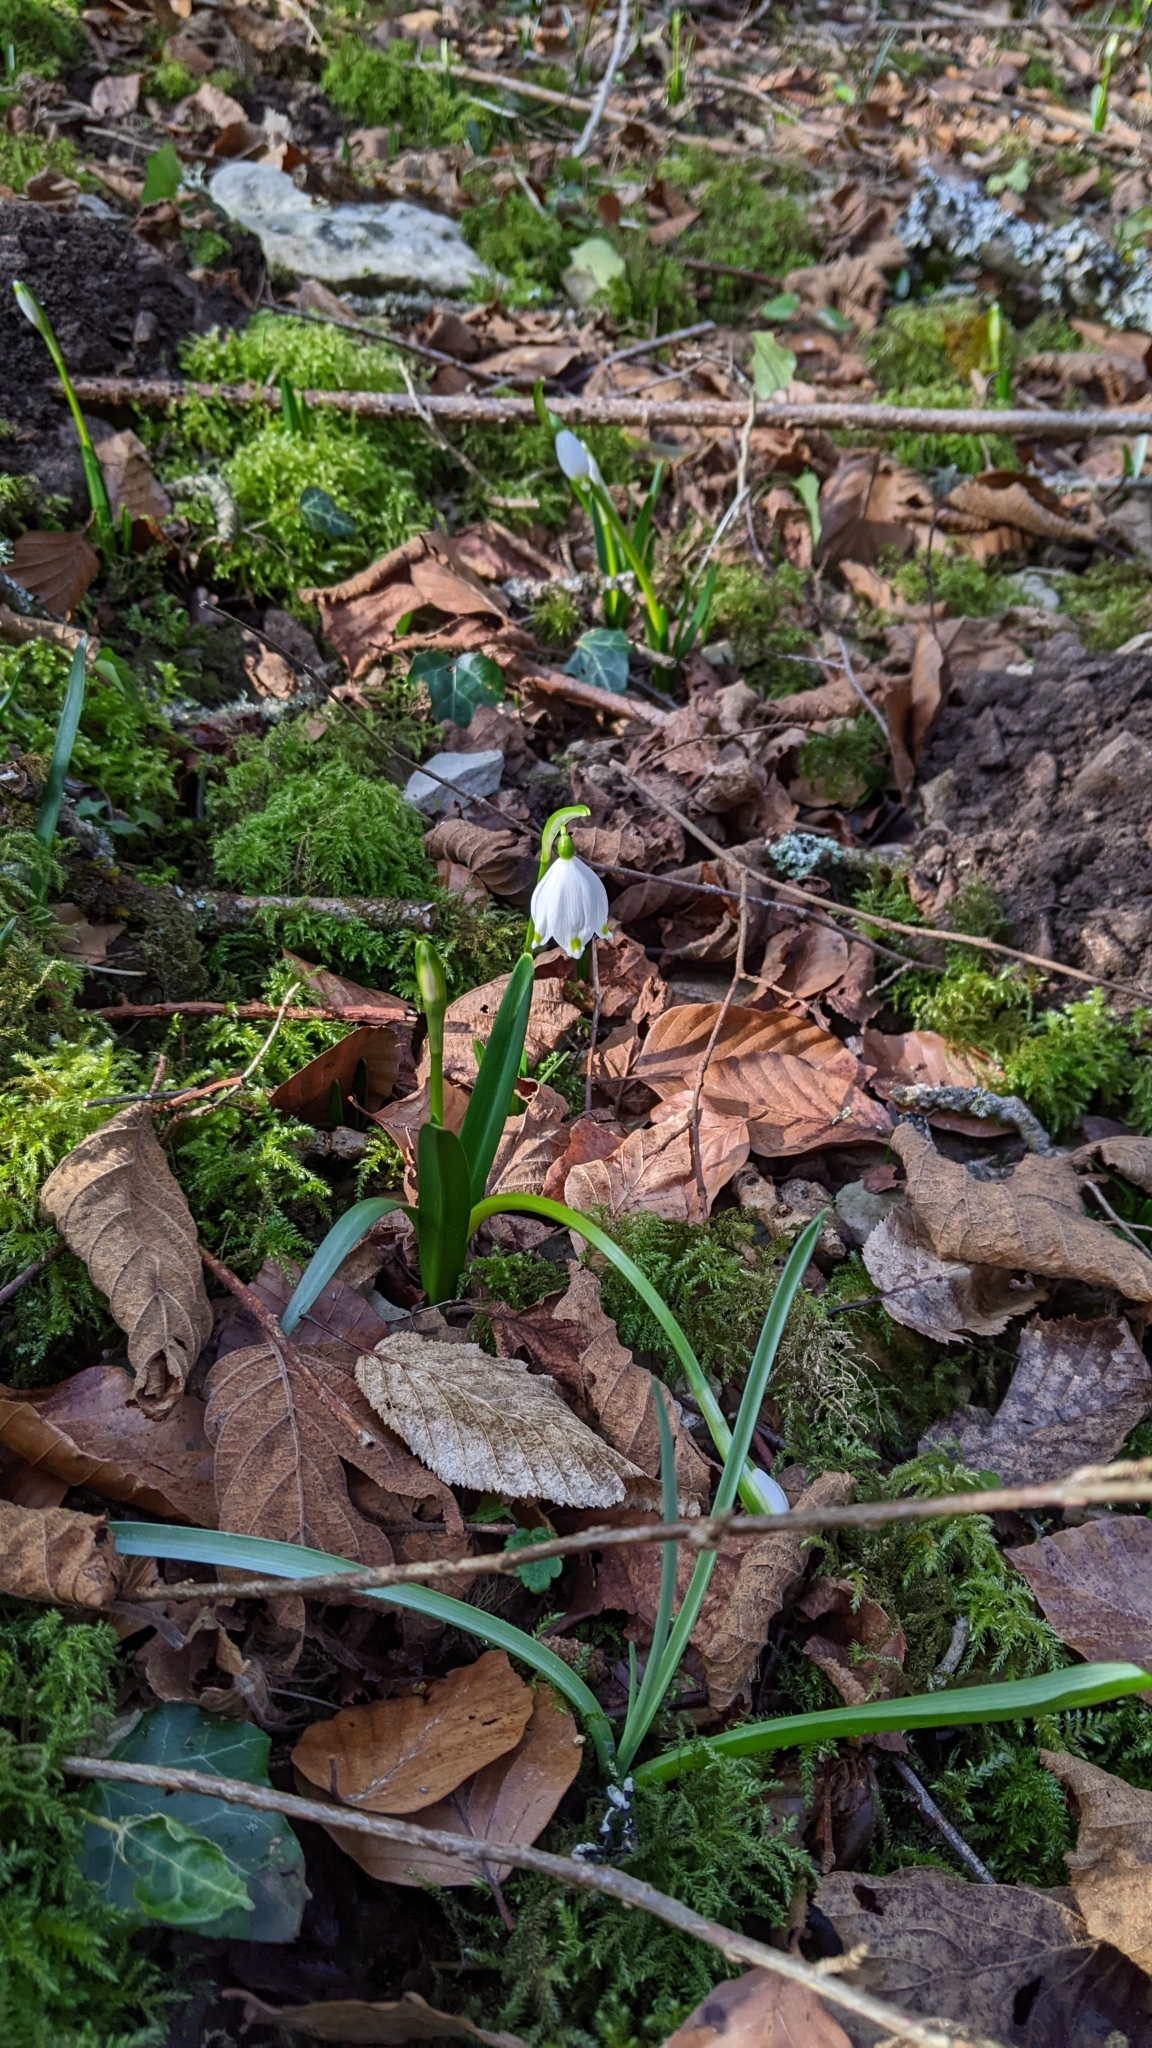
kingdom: Plantae
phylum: Tracheophyta
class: Liliopsida
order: Asparagales
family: Amaryllidaceae
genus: Leucojum
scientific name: Leucojum vernum
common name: Spring snowflake
